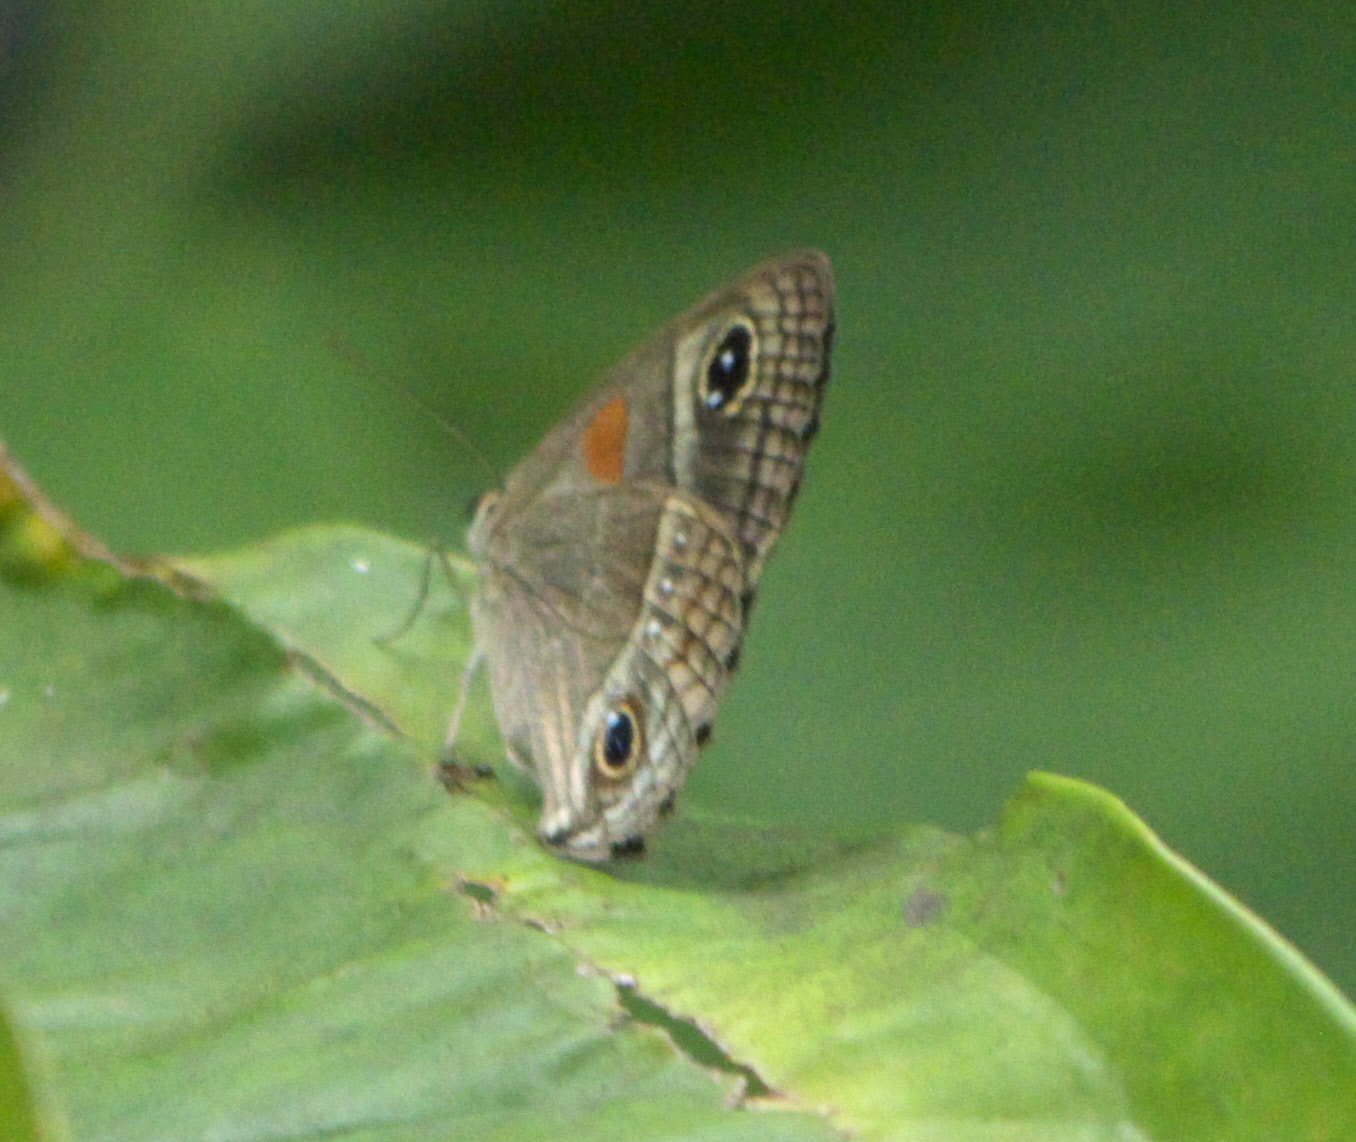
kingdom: Animalia
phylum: Arthropoda
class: Insecta
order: Lepidoptera
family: Nymphalidae
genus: Calisto
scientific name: Calisto herophile
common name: Cuban calisto
